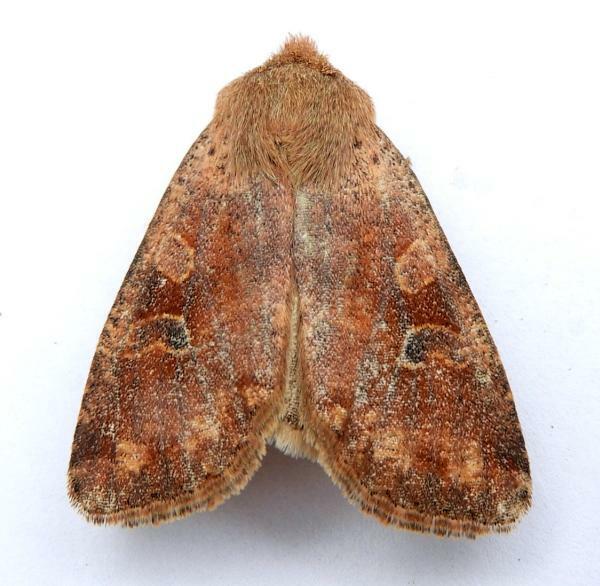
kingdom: Animalia
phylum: Arthropoda
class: Insecta
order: Lepidoptera
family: Noctuidae
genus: Orthosia
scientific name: Orthosia rubescens
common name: Ruby quaker
